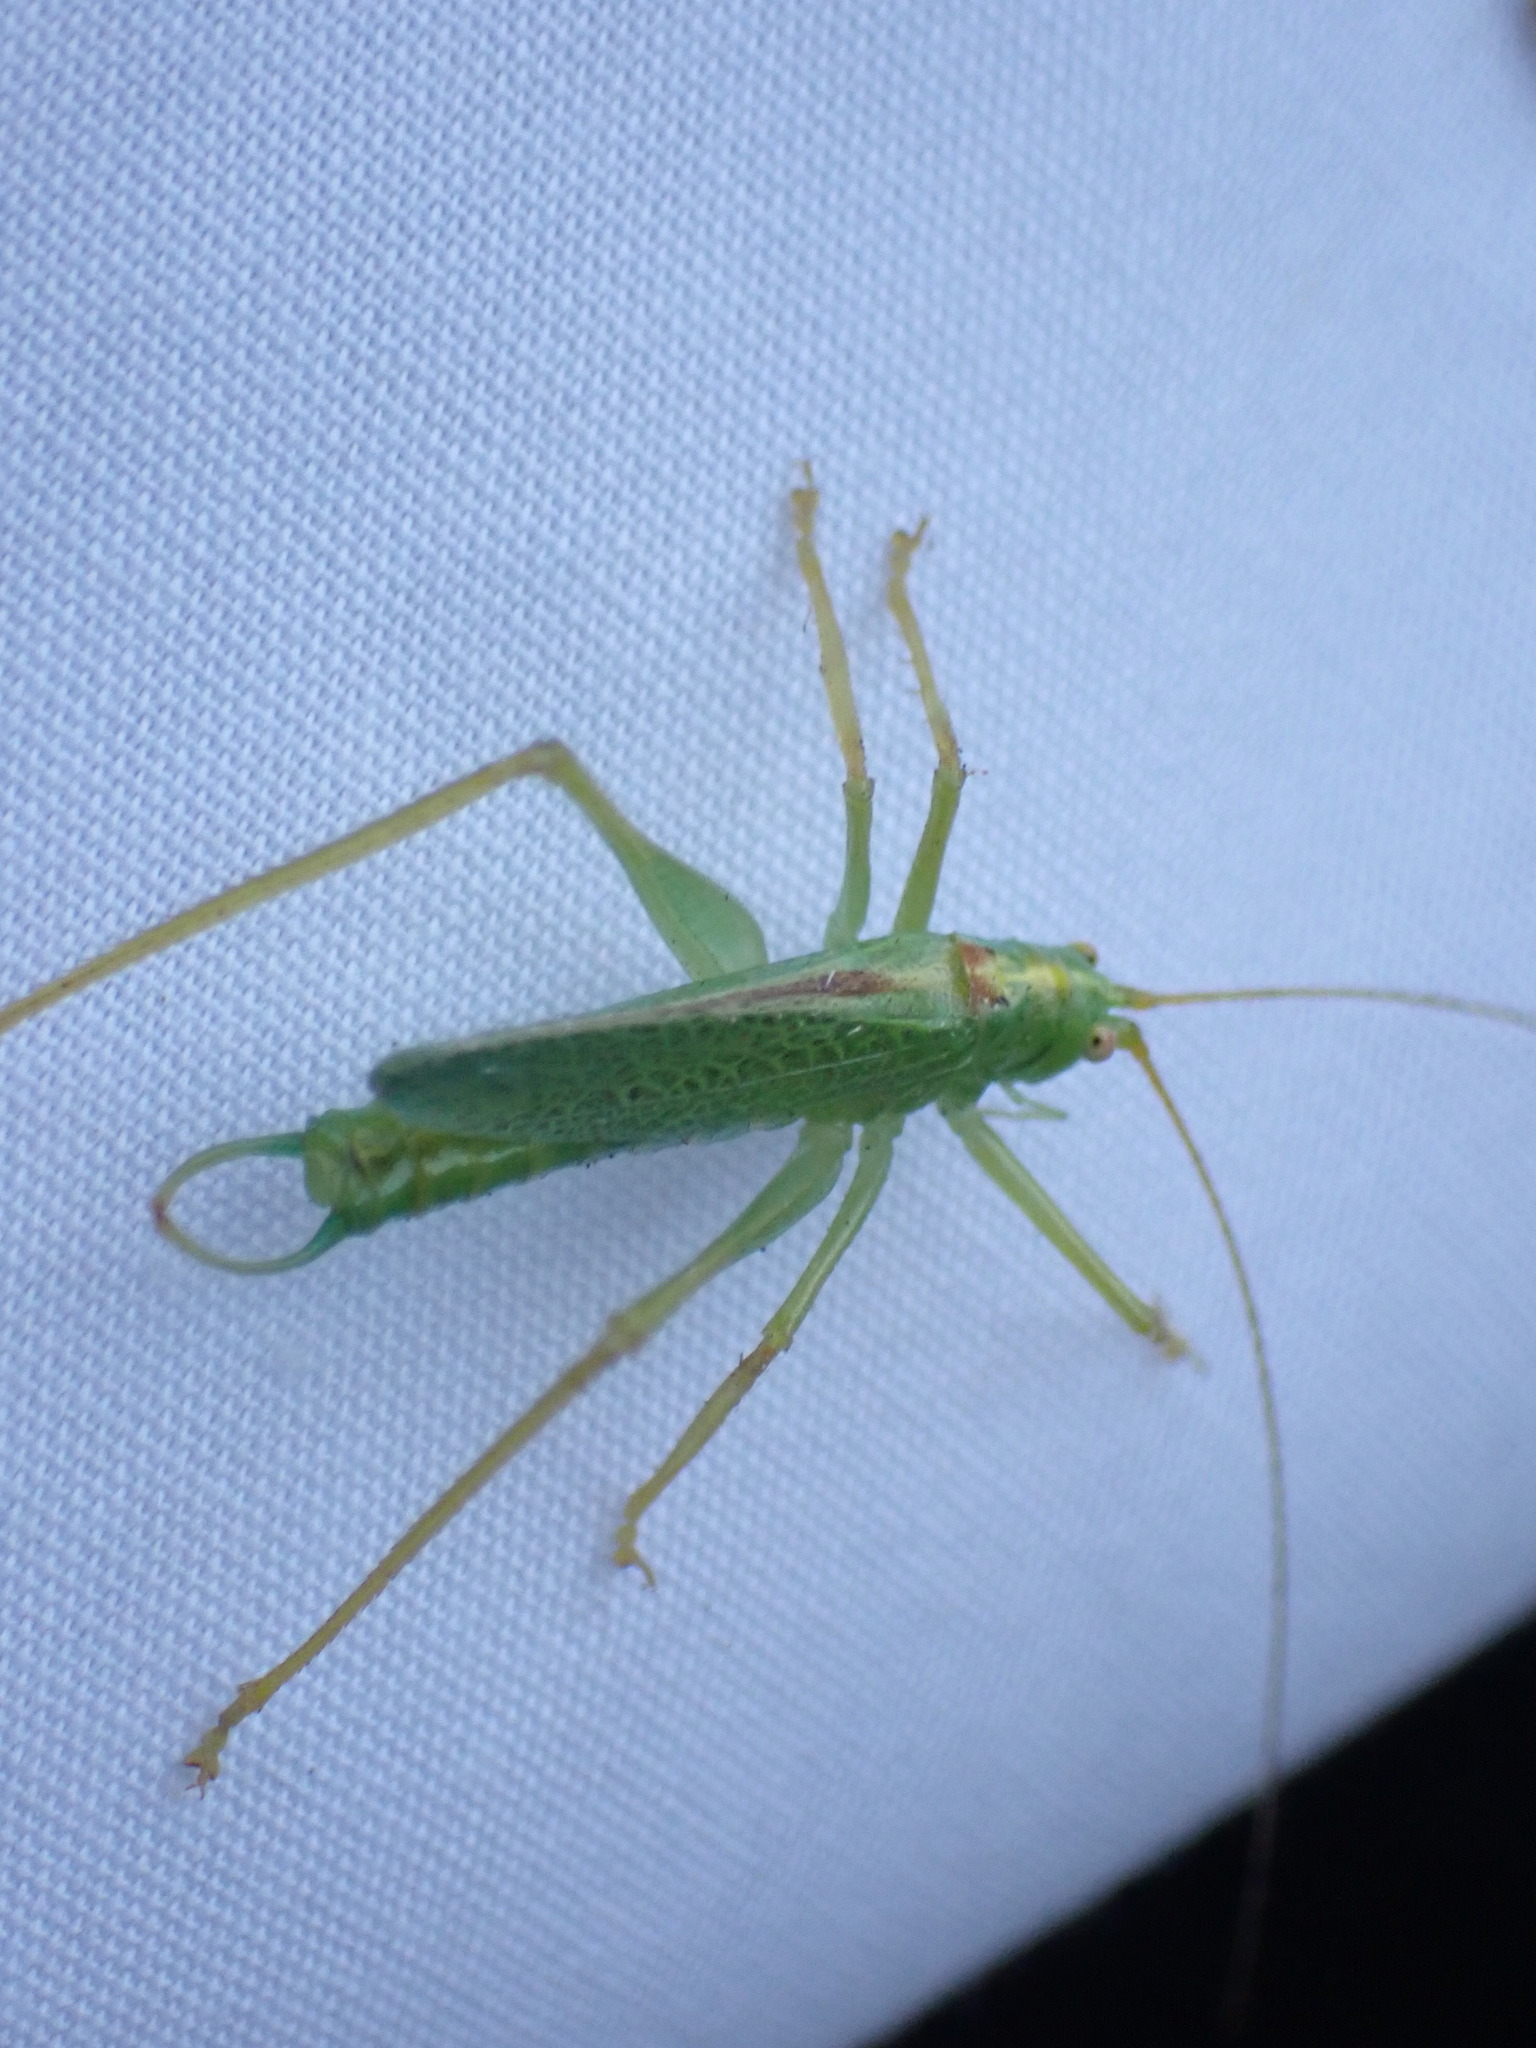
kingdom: Animalia
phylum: Arthropoda
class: Insecta
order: Orthoptera
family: Tettigoniidae
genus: Meconema
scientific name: Meconema thalassinum
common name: Oak bush-cricket
